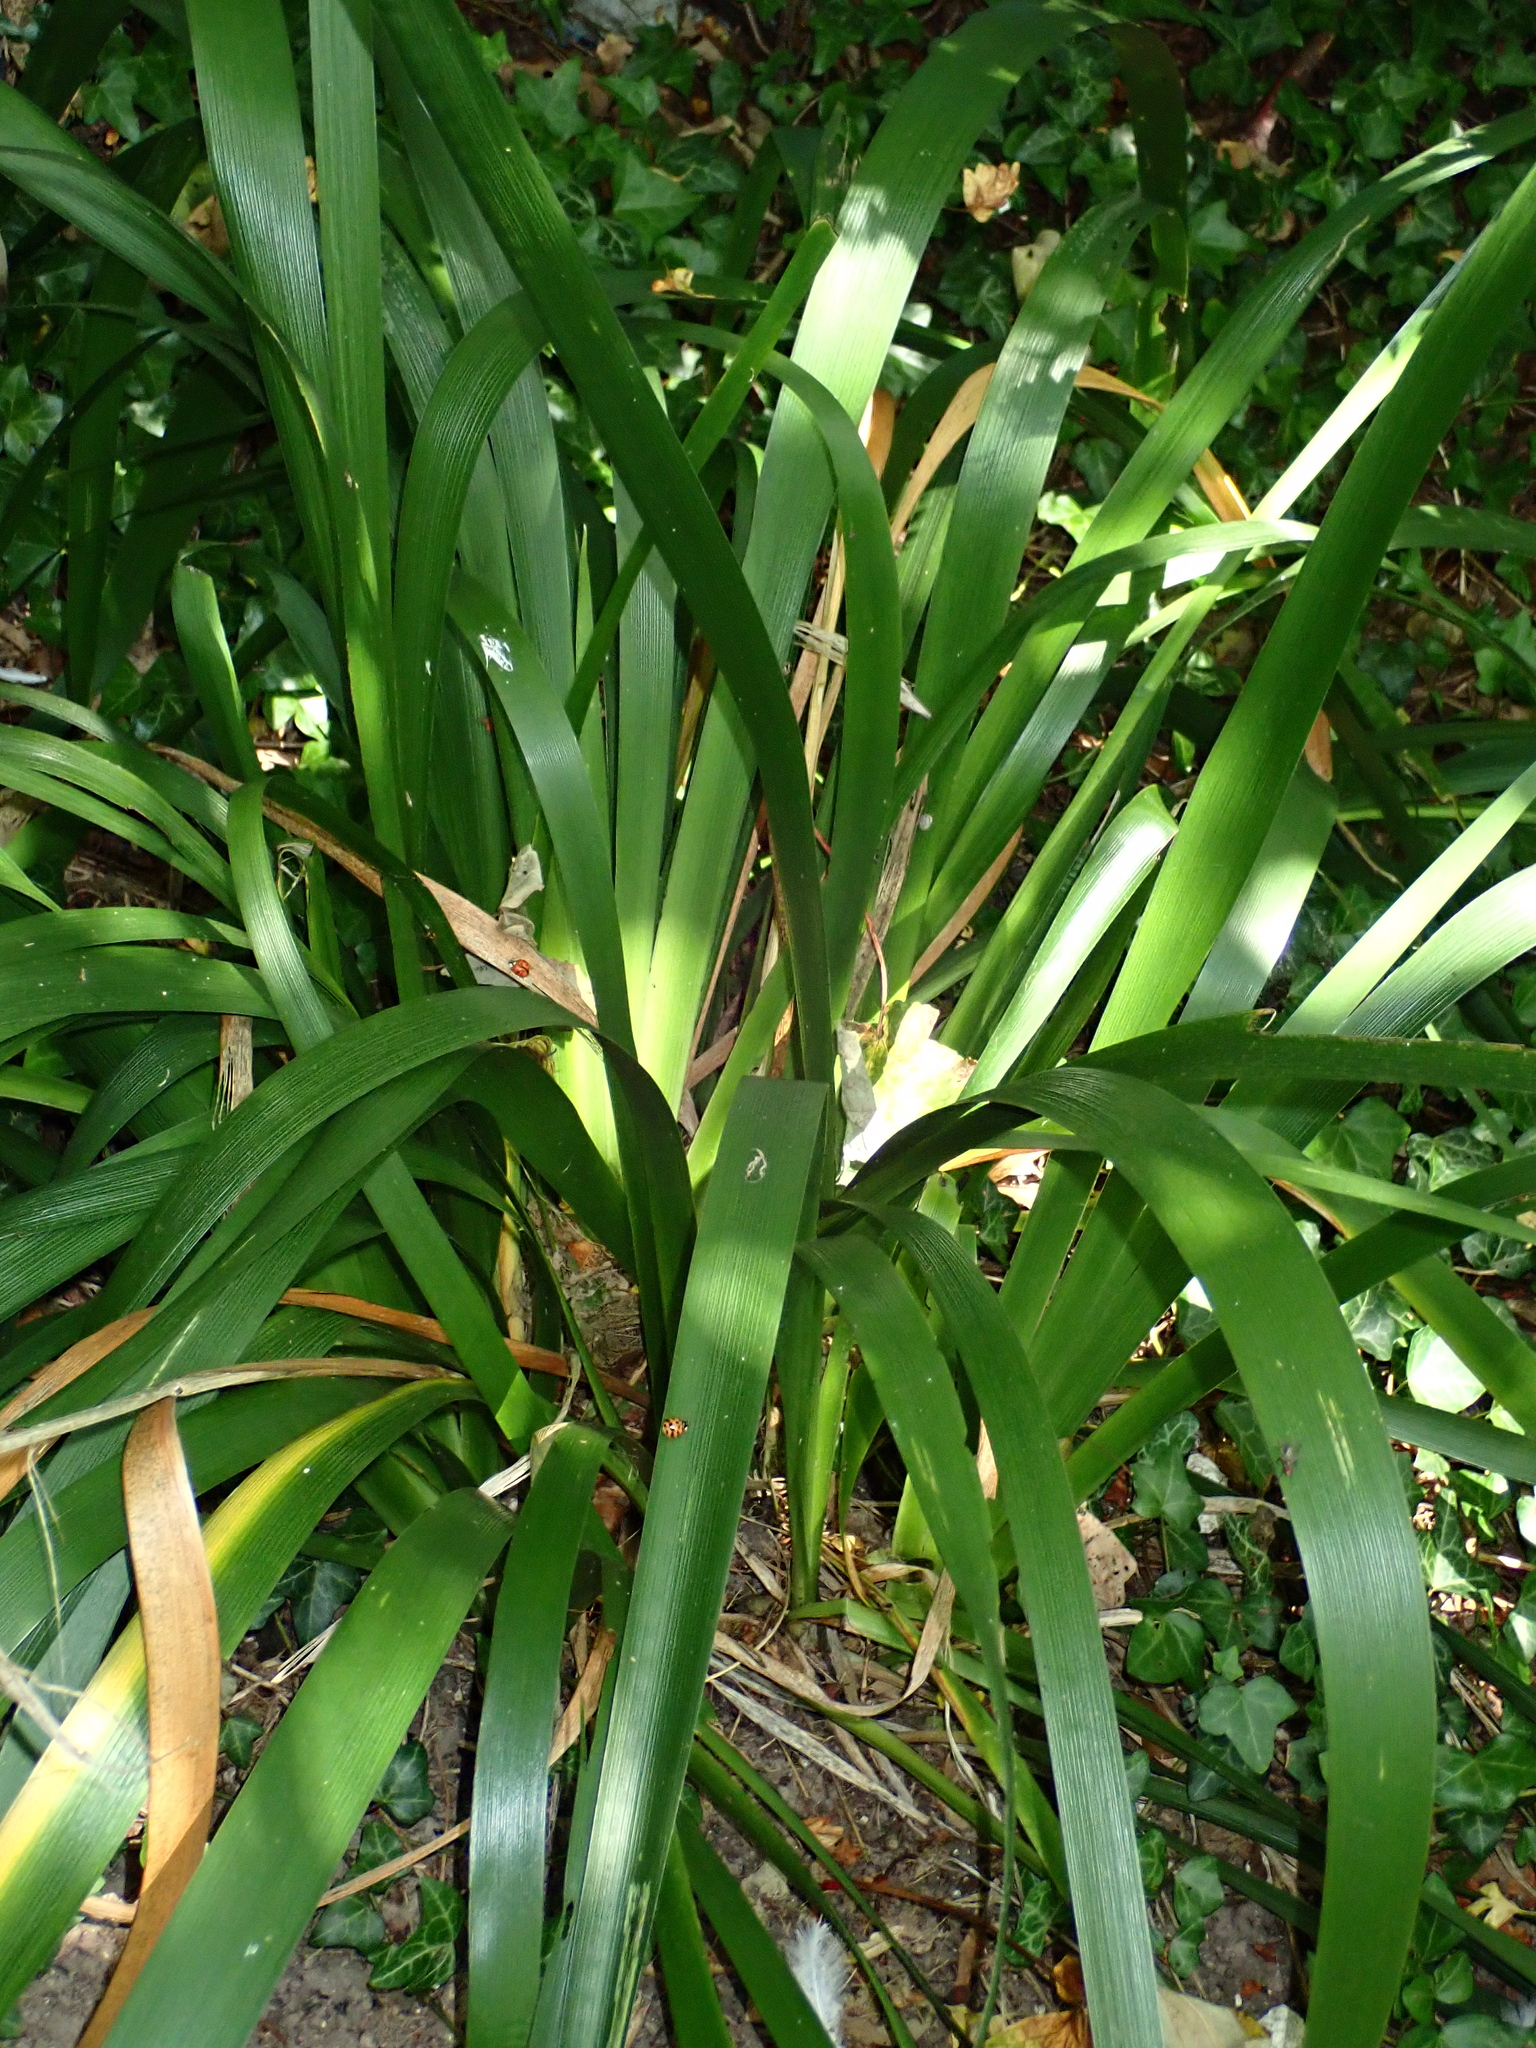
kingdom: Plantae
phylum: Tracheophyta
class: Liliopsida
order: Asparagales
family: Iridaceae
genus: Iris
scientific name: Iris foetidissima
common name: Stinking iris
